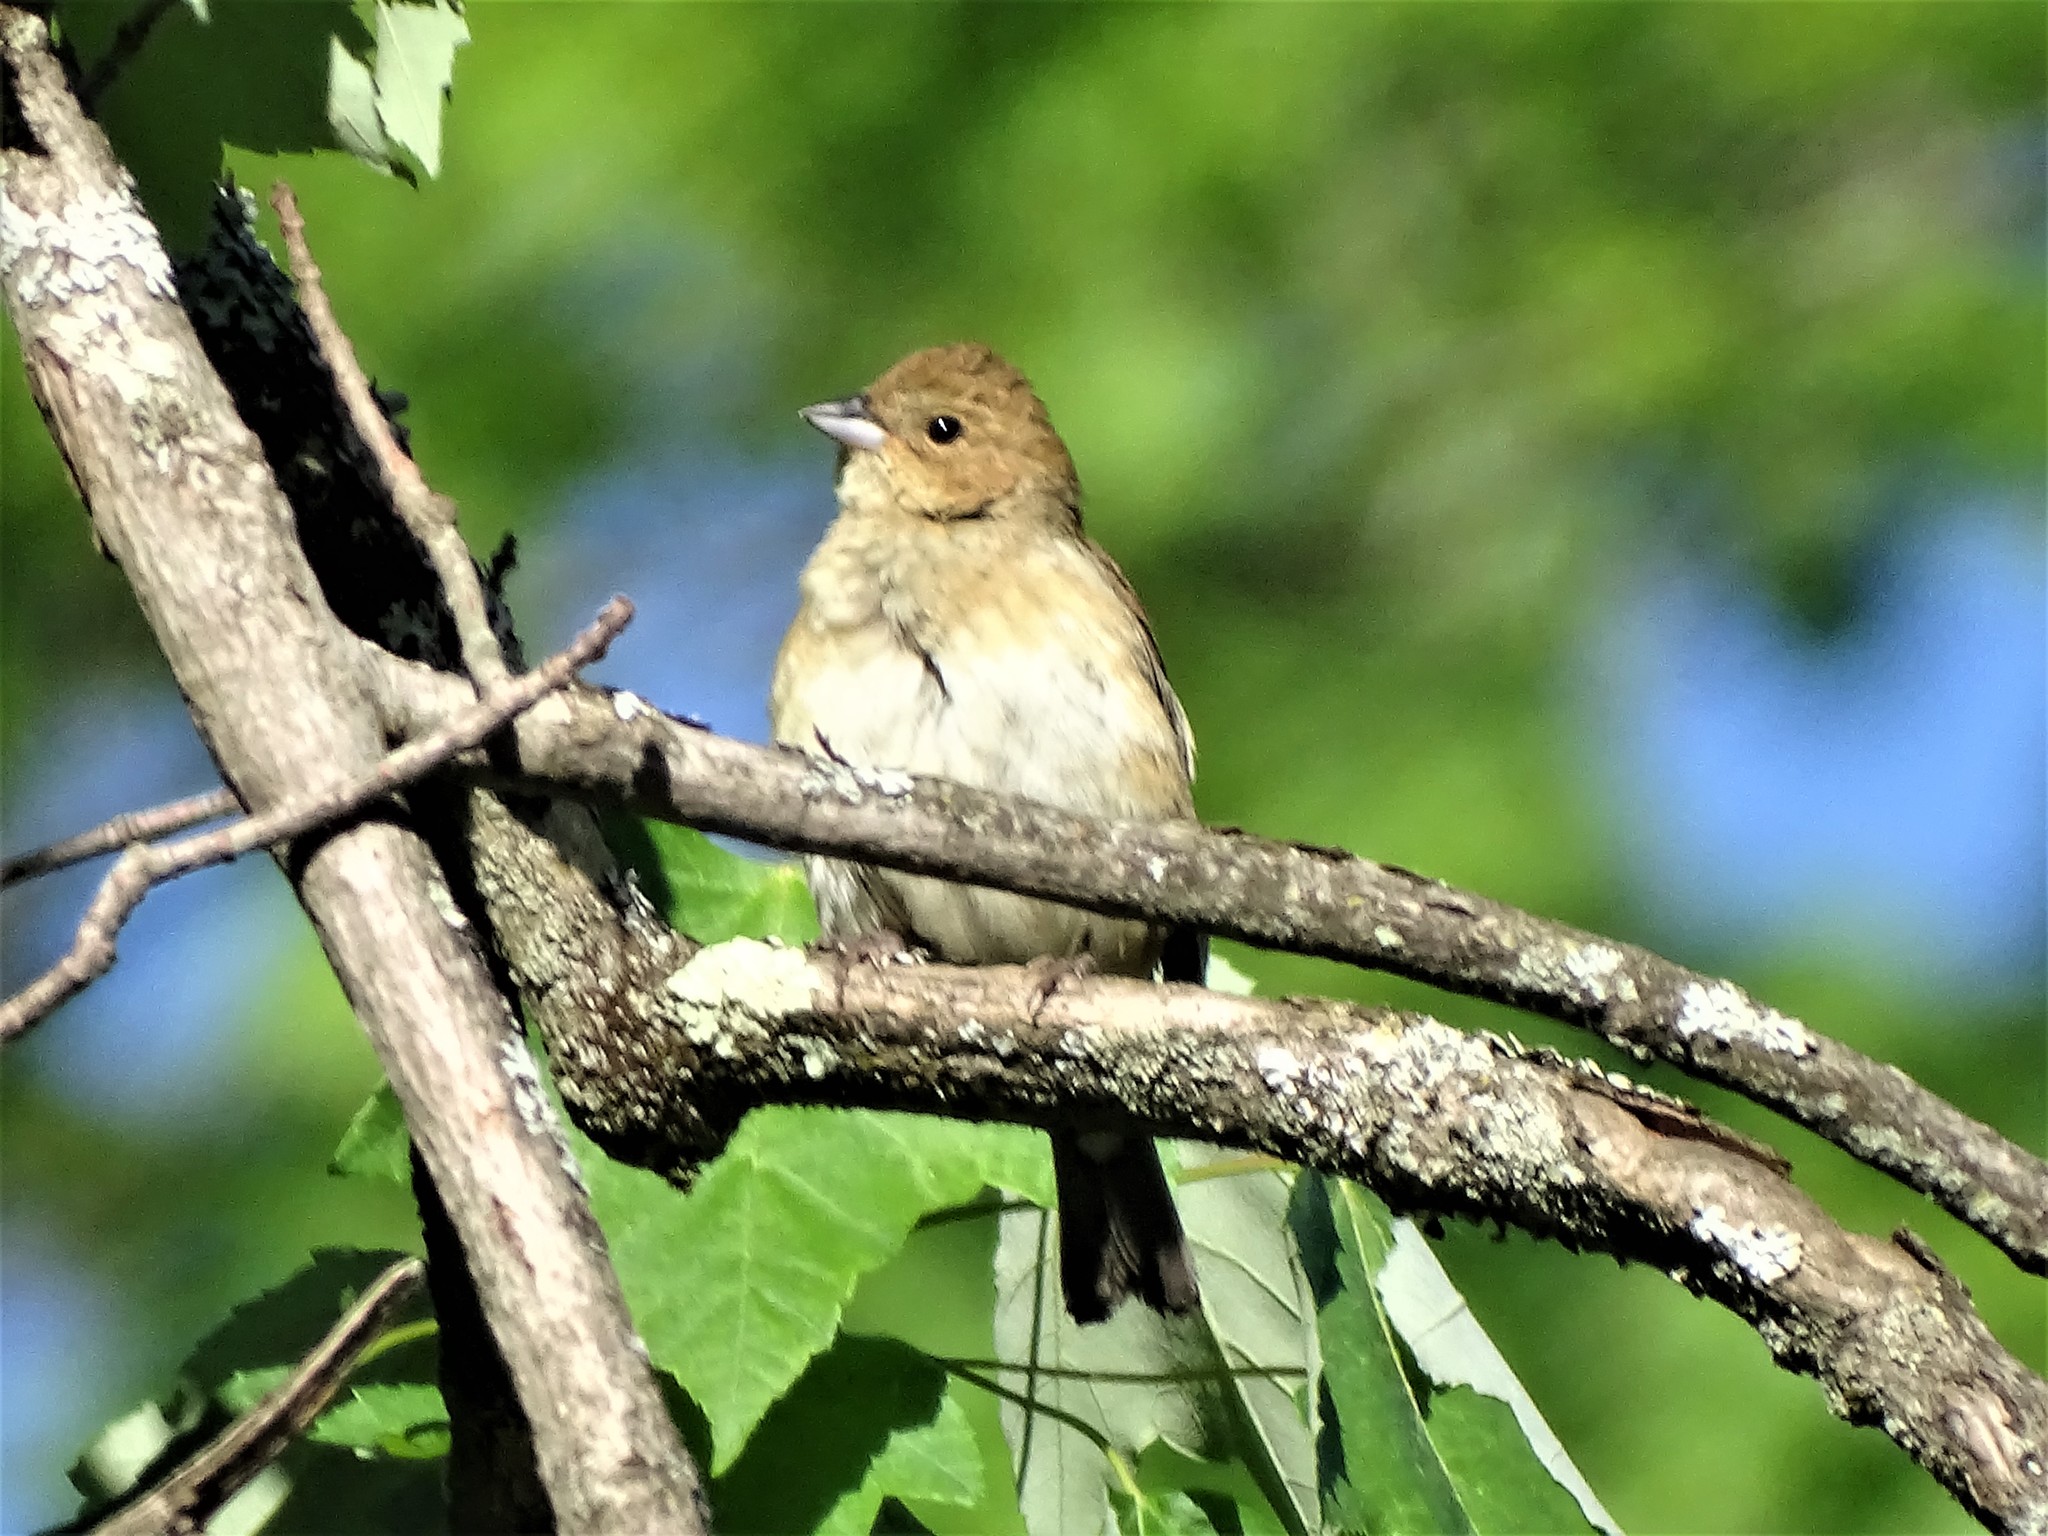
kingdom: Animalia
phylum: Chordata
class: Aves
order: Passeriformes
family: Cardinalidae
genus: Passerina
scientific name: Passerina cyanea
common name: Indigo bunting
